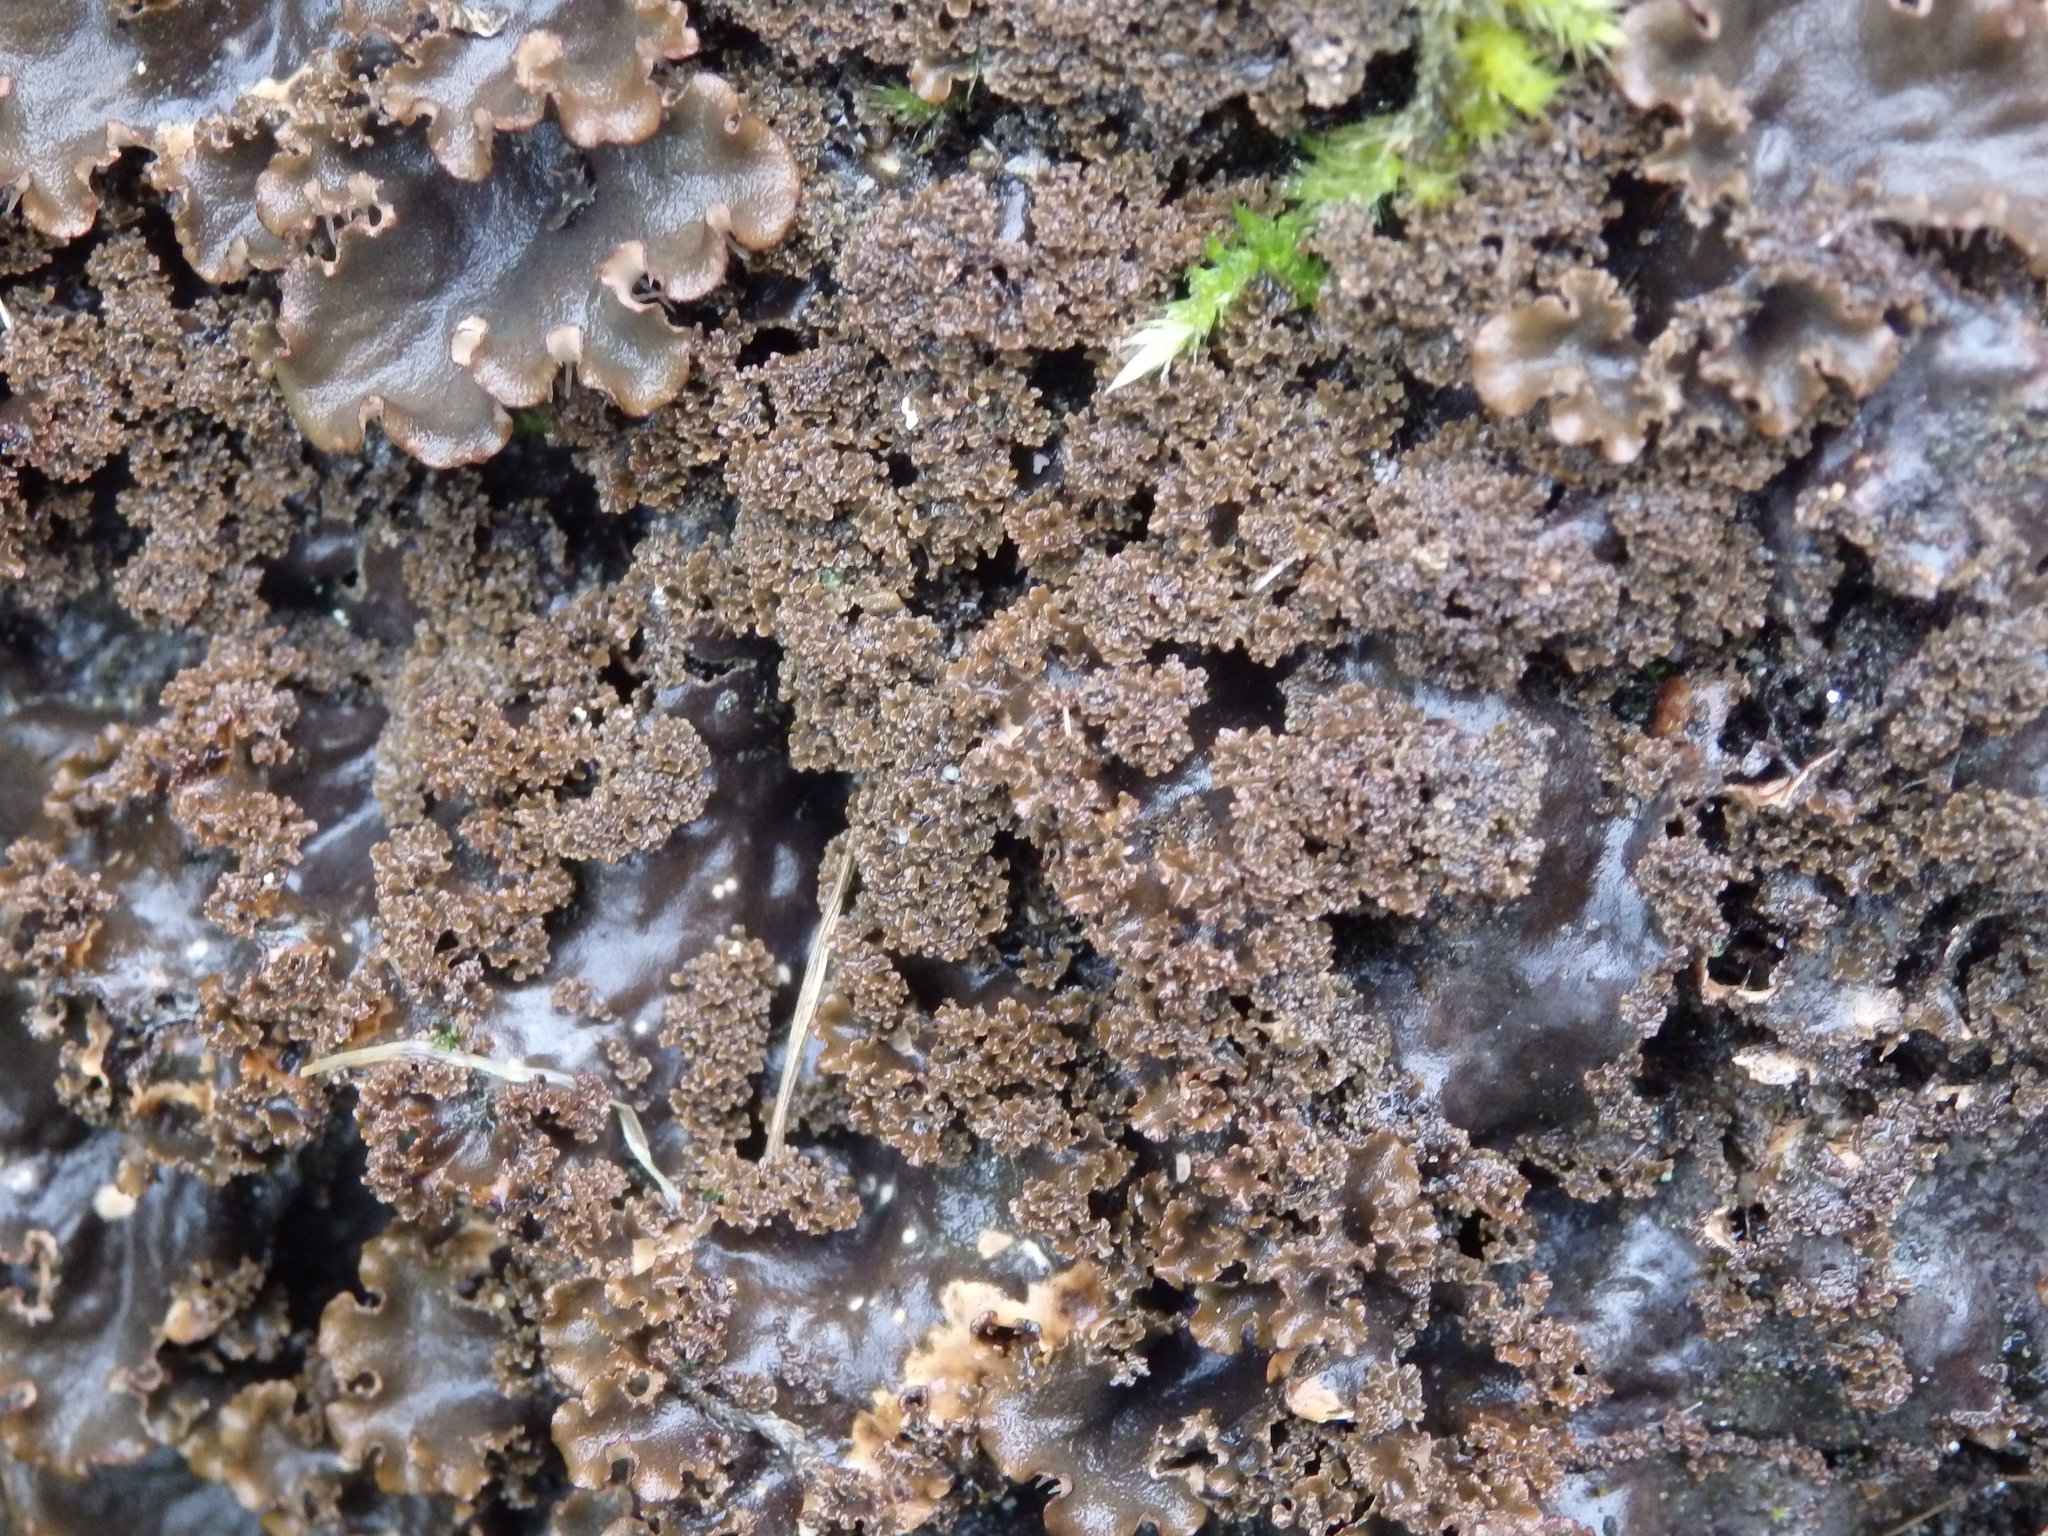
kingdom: Fungi
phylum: Ascomycota
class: Lecanoromycetes
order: Peltigerales
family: Peltigeraceae
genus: Peltigera
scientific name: Peltigera praetextata
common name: Scaly dog-lichen
